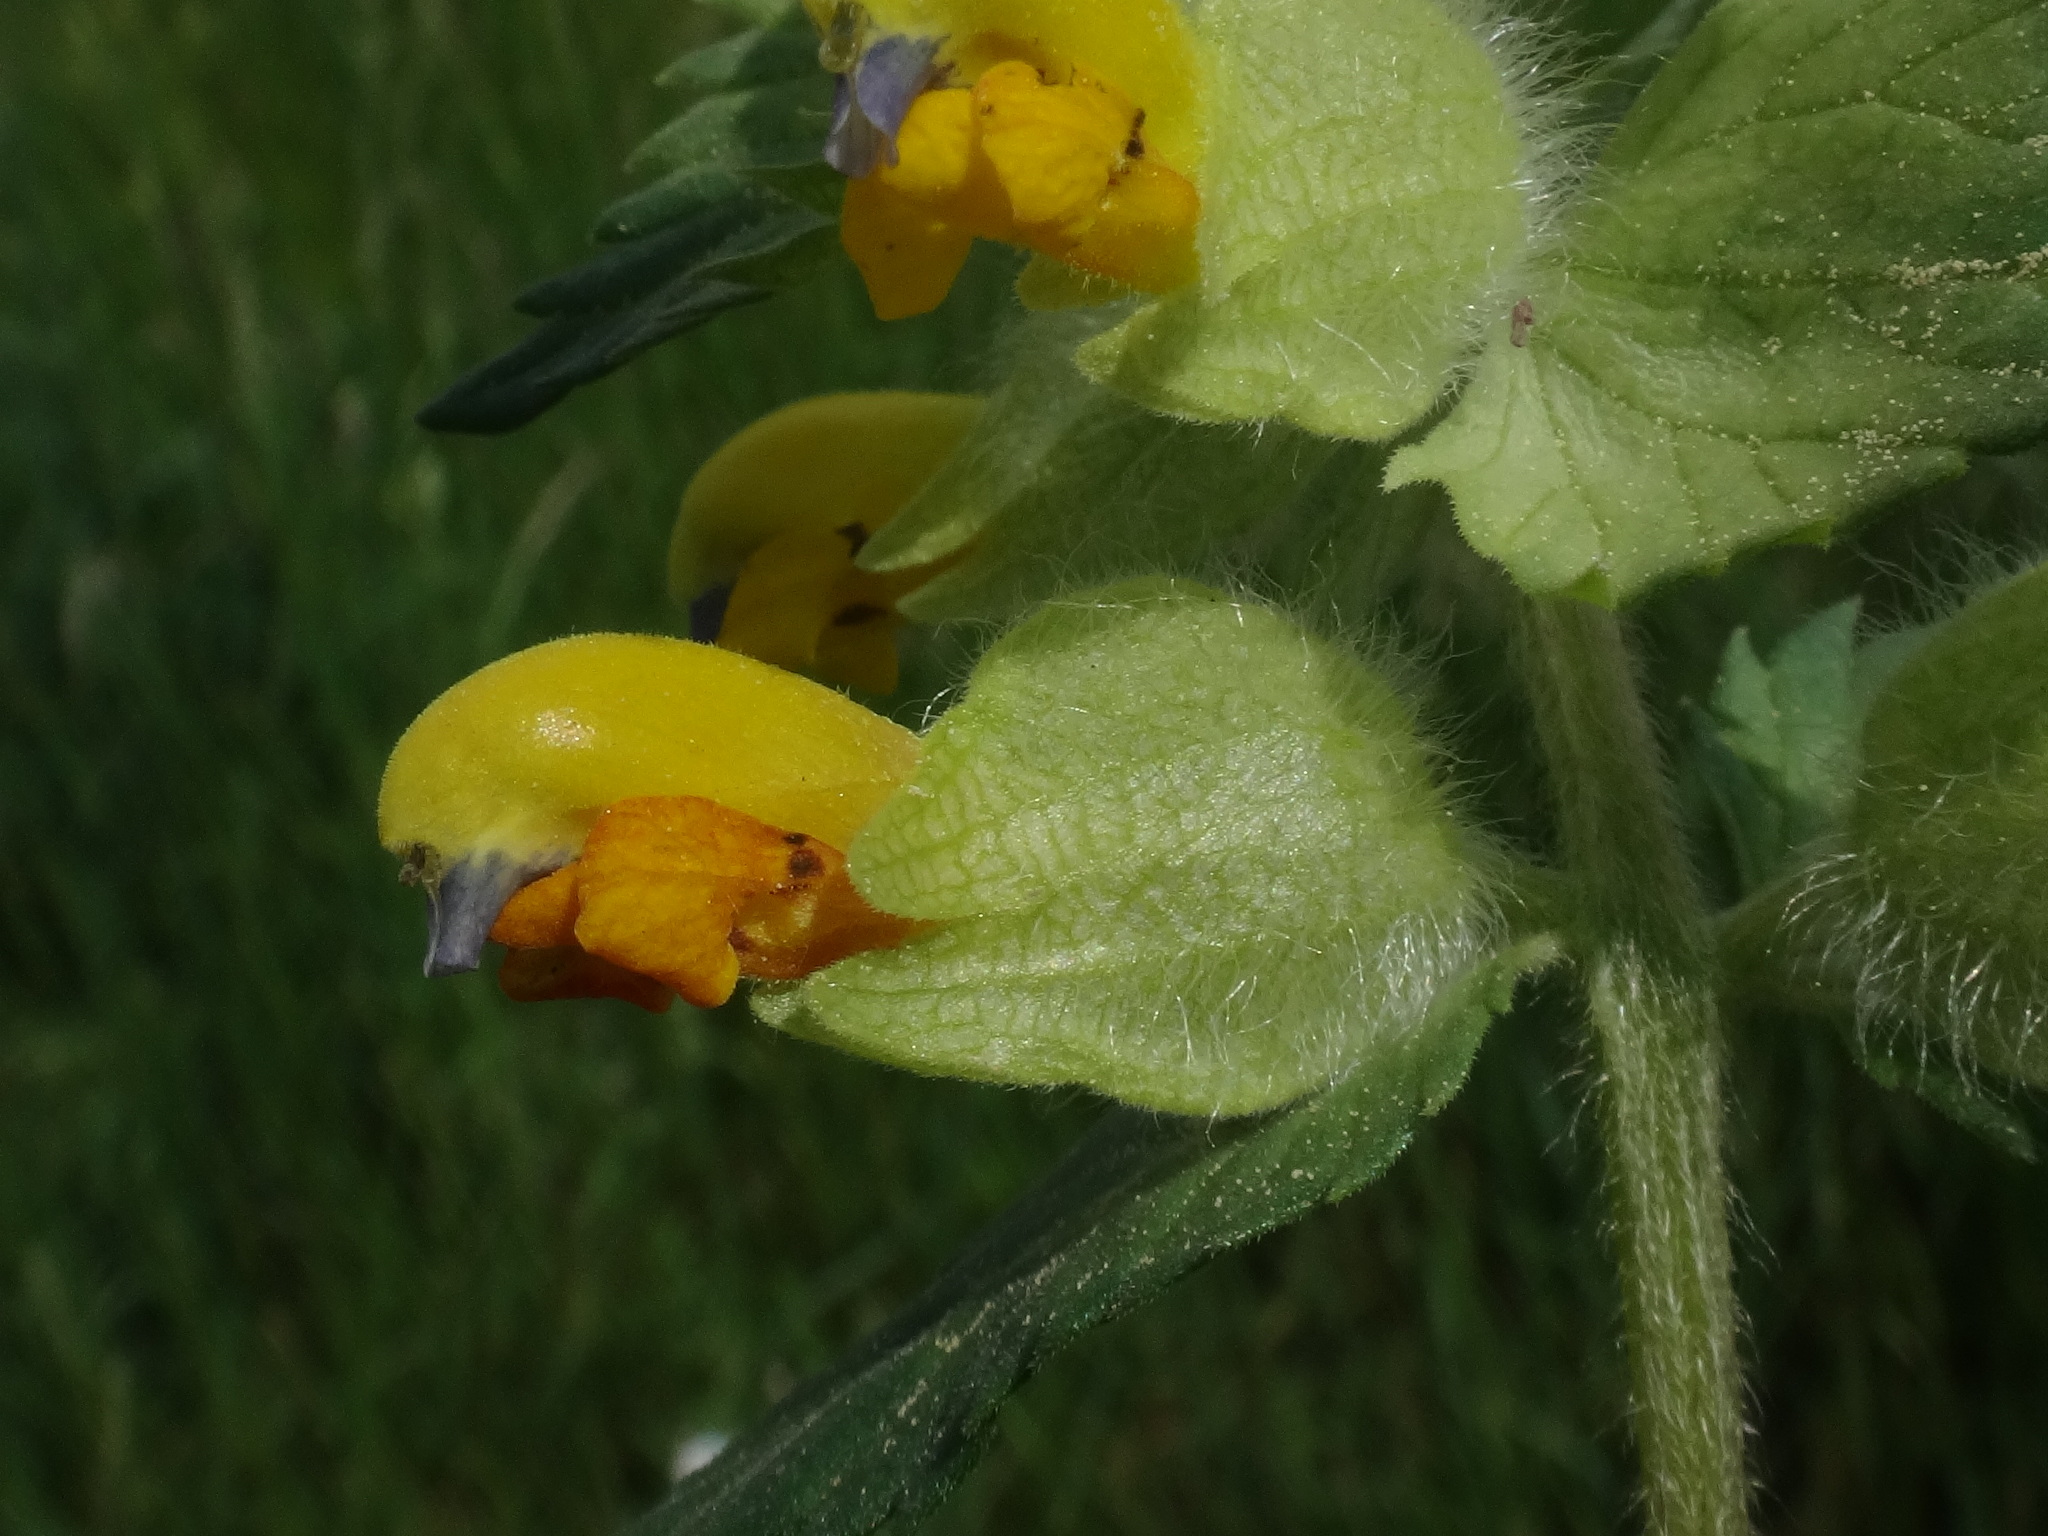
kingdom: Plantae
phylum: Tracheophyta
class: Magnoliopsida
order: Lamiales
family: Orobanchaceae
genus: Rhinanthus
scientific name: Rhinanthus alectorolophus
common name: Greater yellow-rattle
